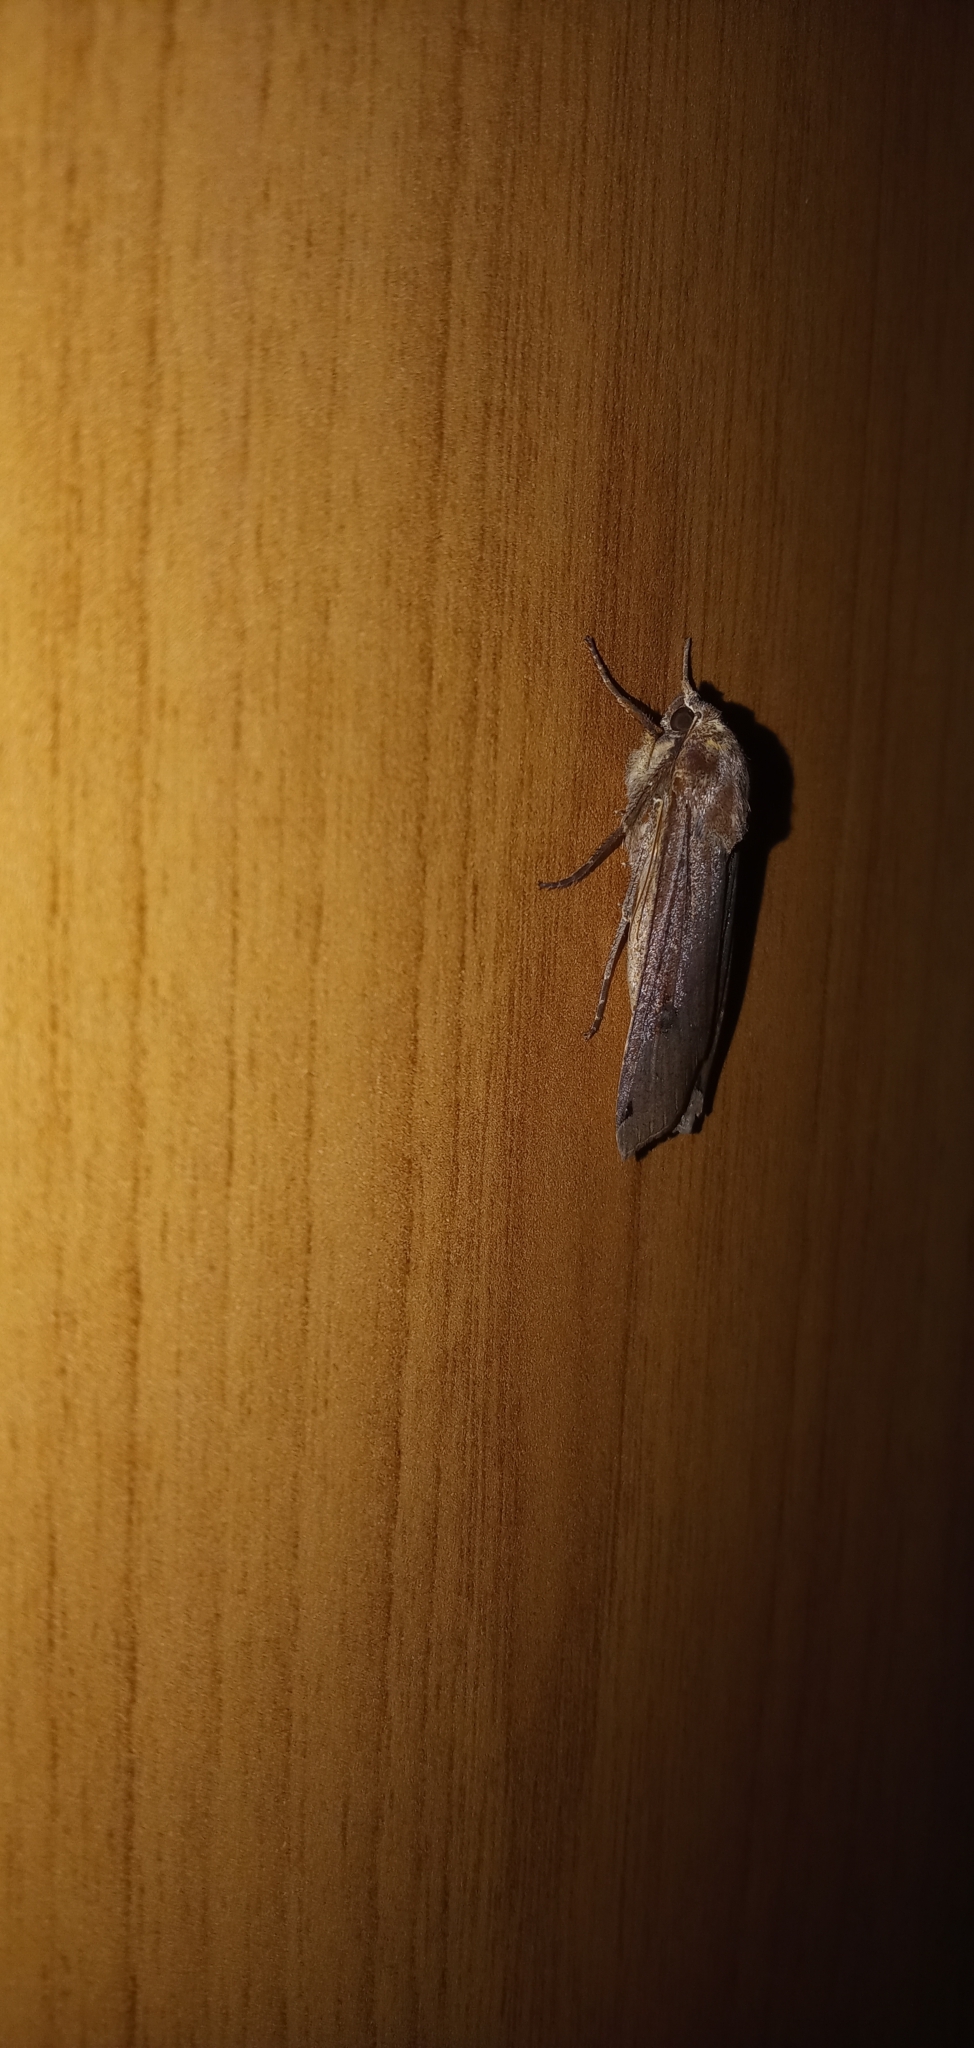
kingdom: Animalia
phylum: Arthropoda
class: Insecta
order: Lepidoptera
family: Noctuidae
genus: Noctua
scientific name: Noctua pronuba
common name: Large yellow underwing
